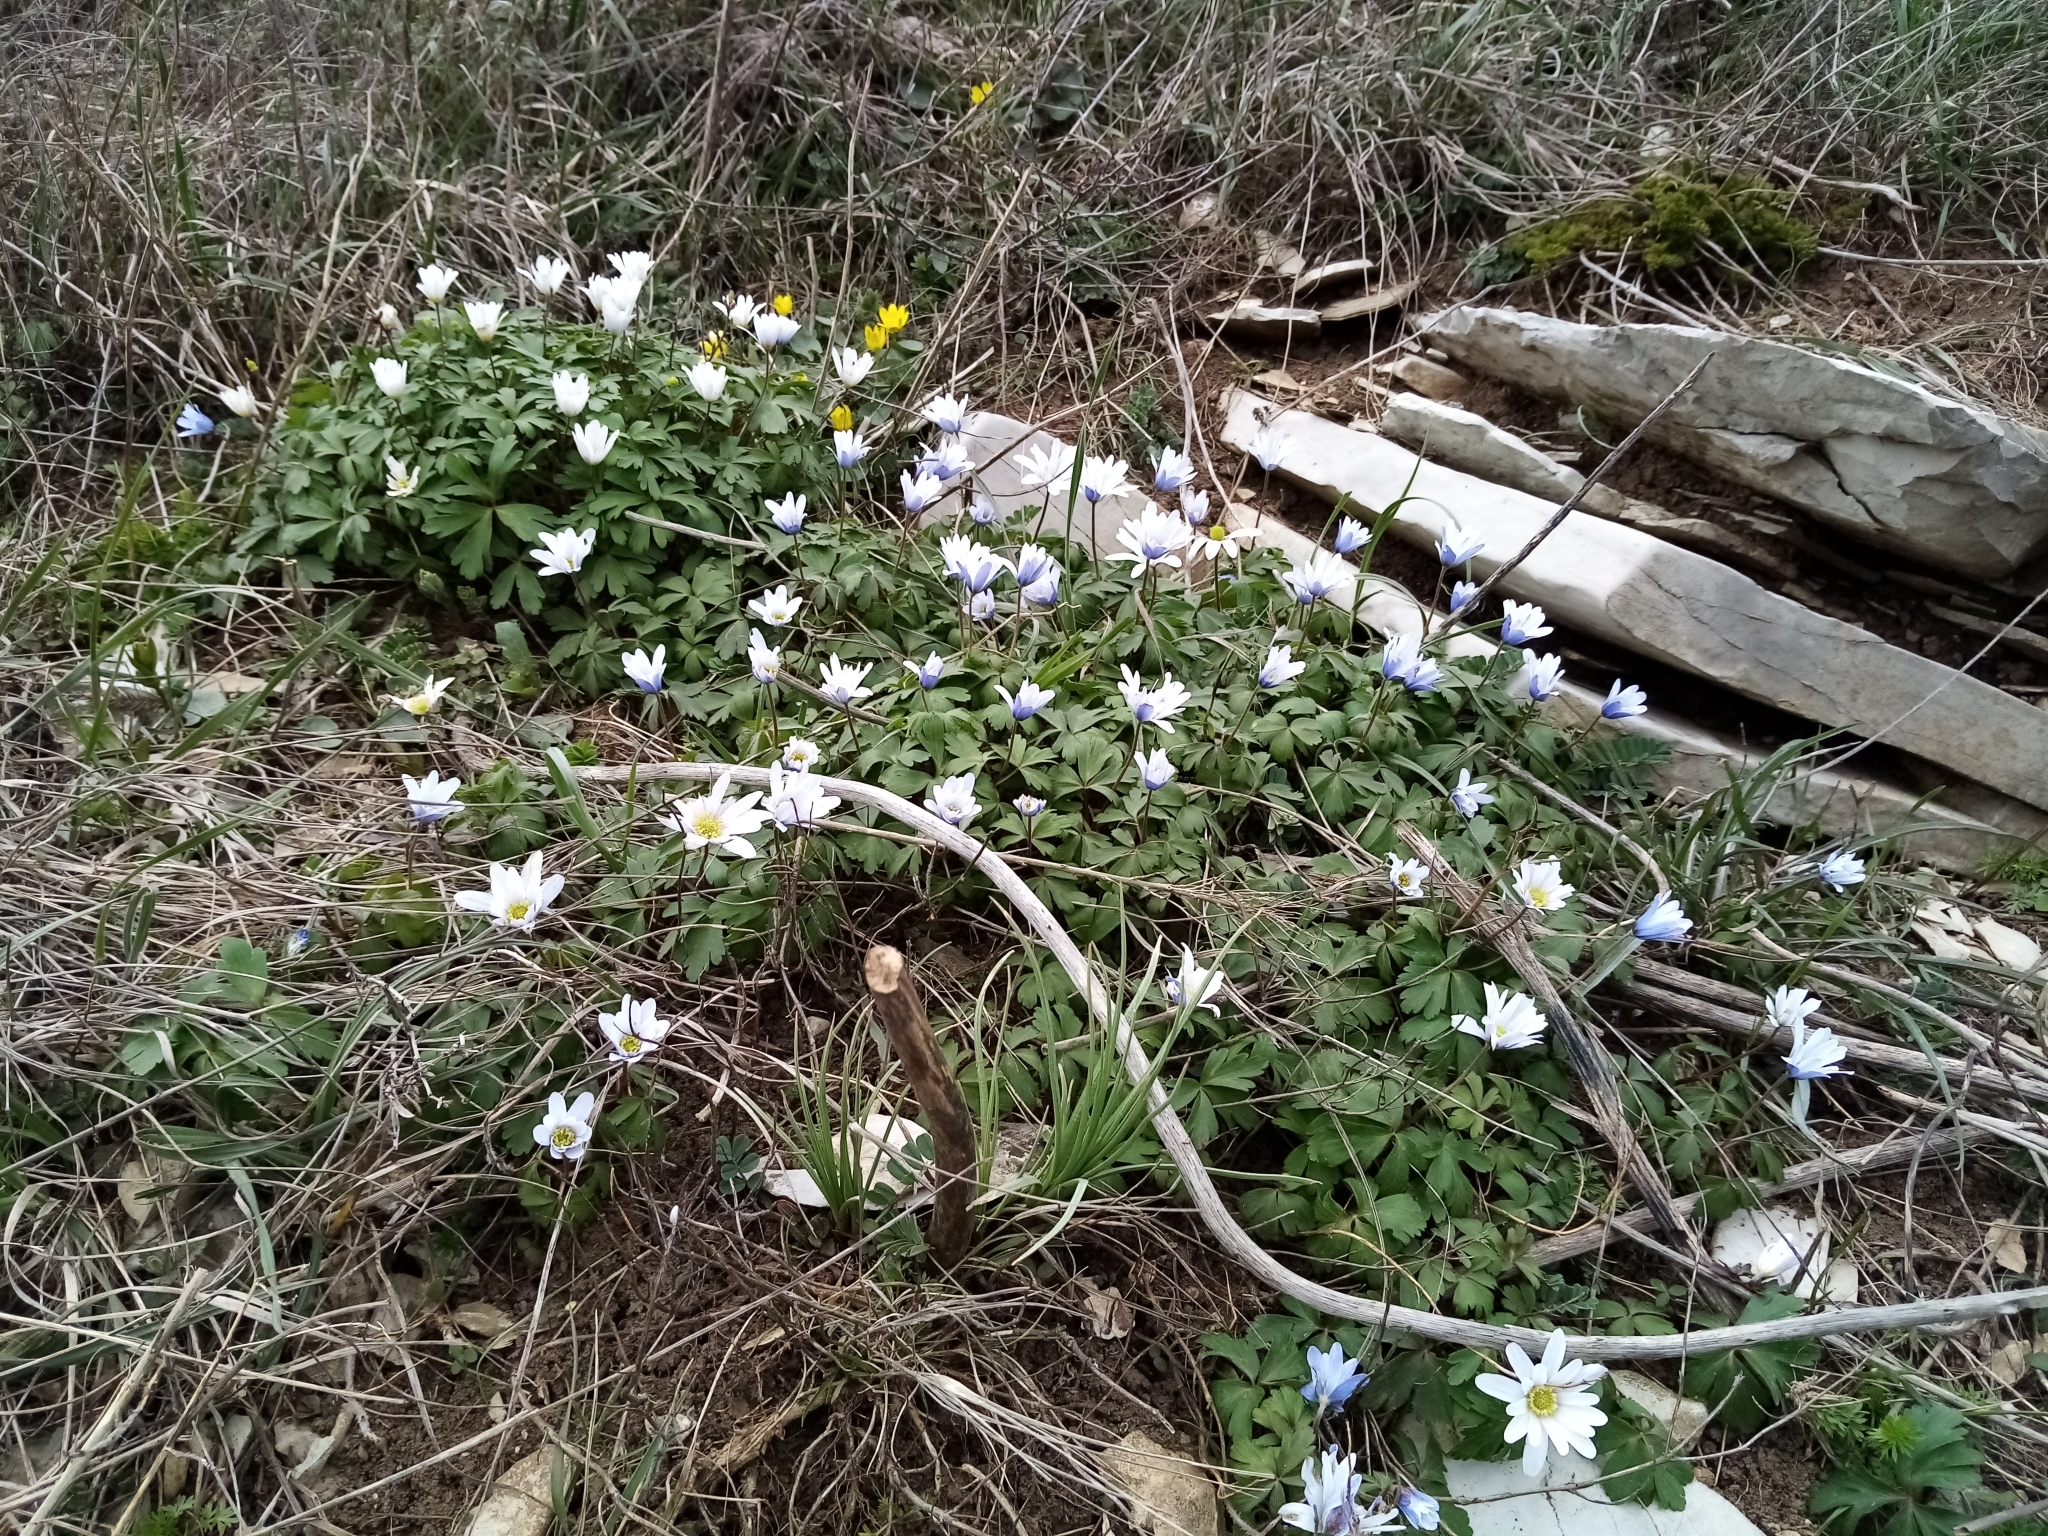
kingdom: Plantae
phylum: Tracheophyta
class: Magnoliopsida
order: Ranunculales
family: Ranunculaceae
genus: Anemone
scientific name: Anemone blanda
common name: Balkan anemone
